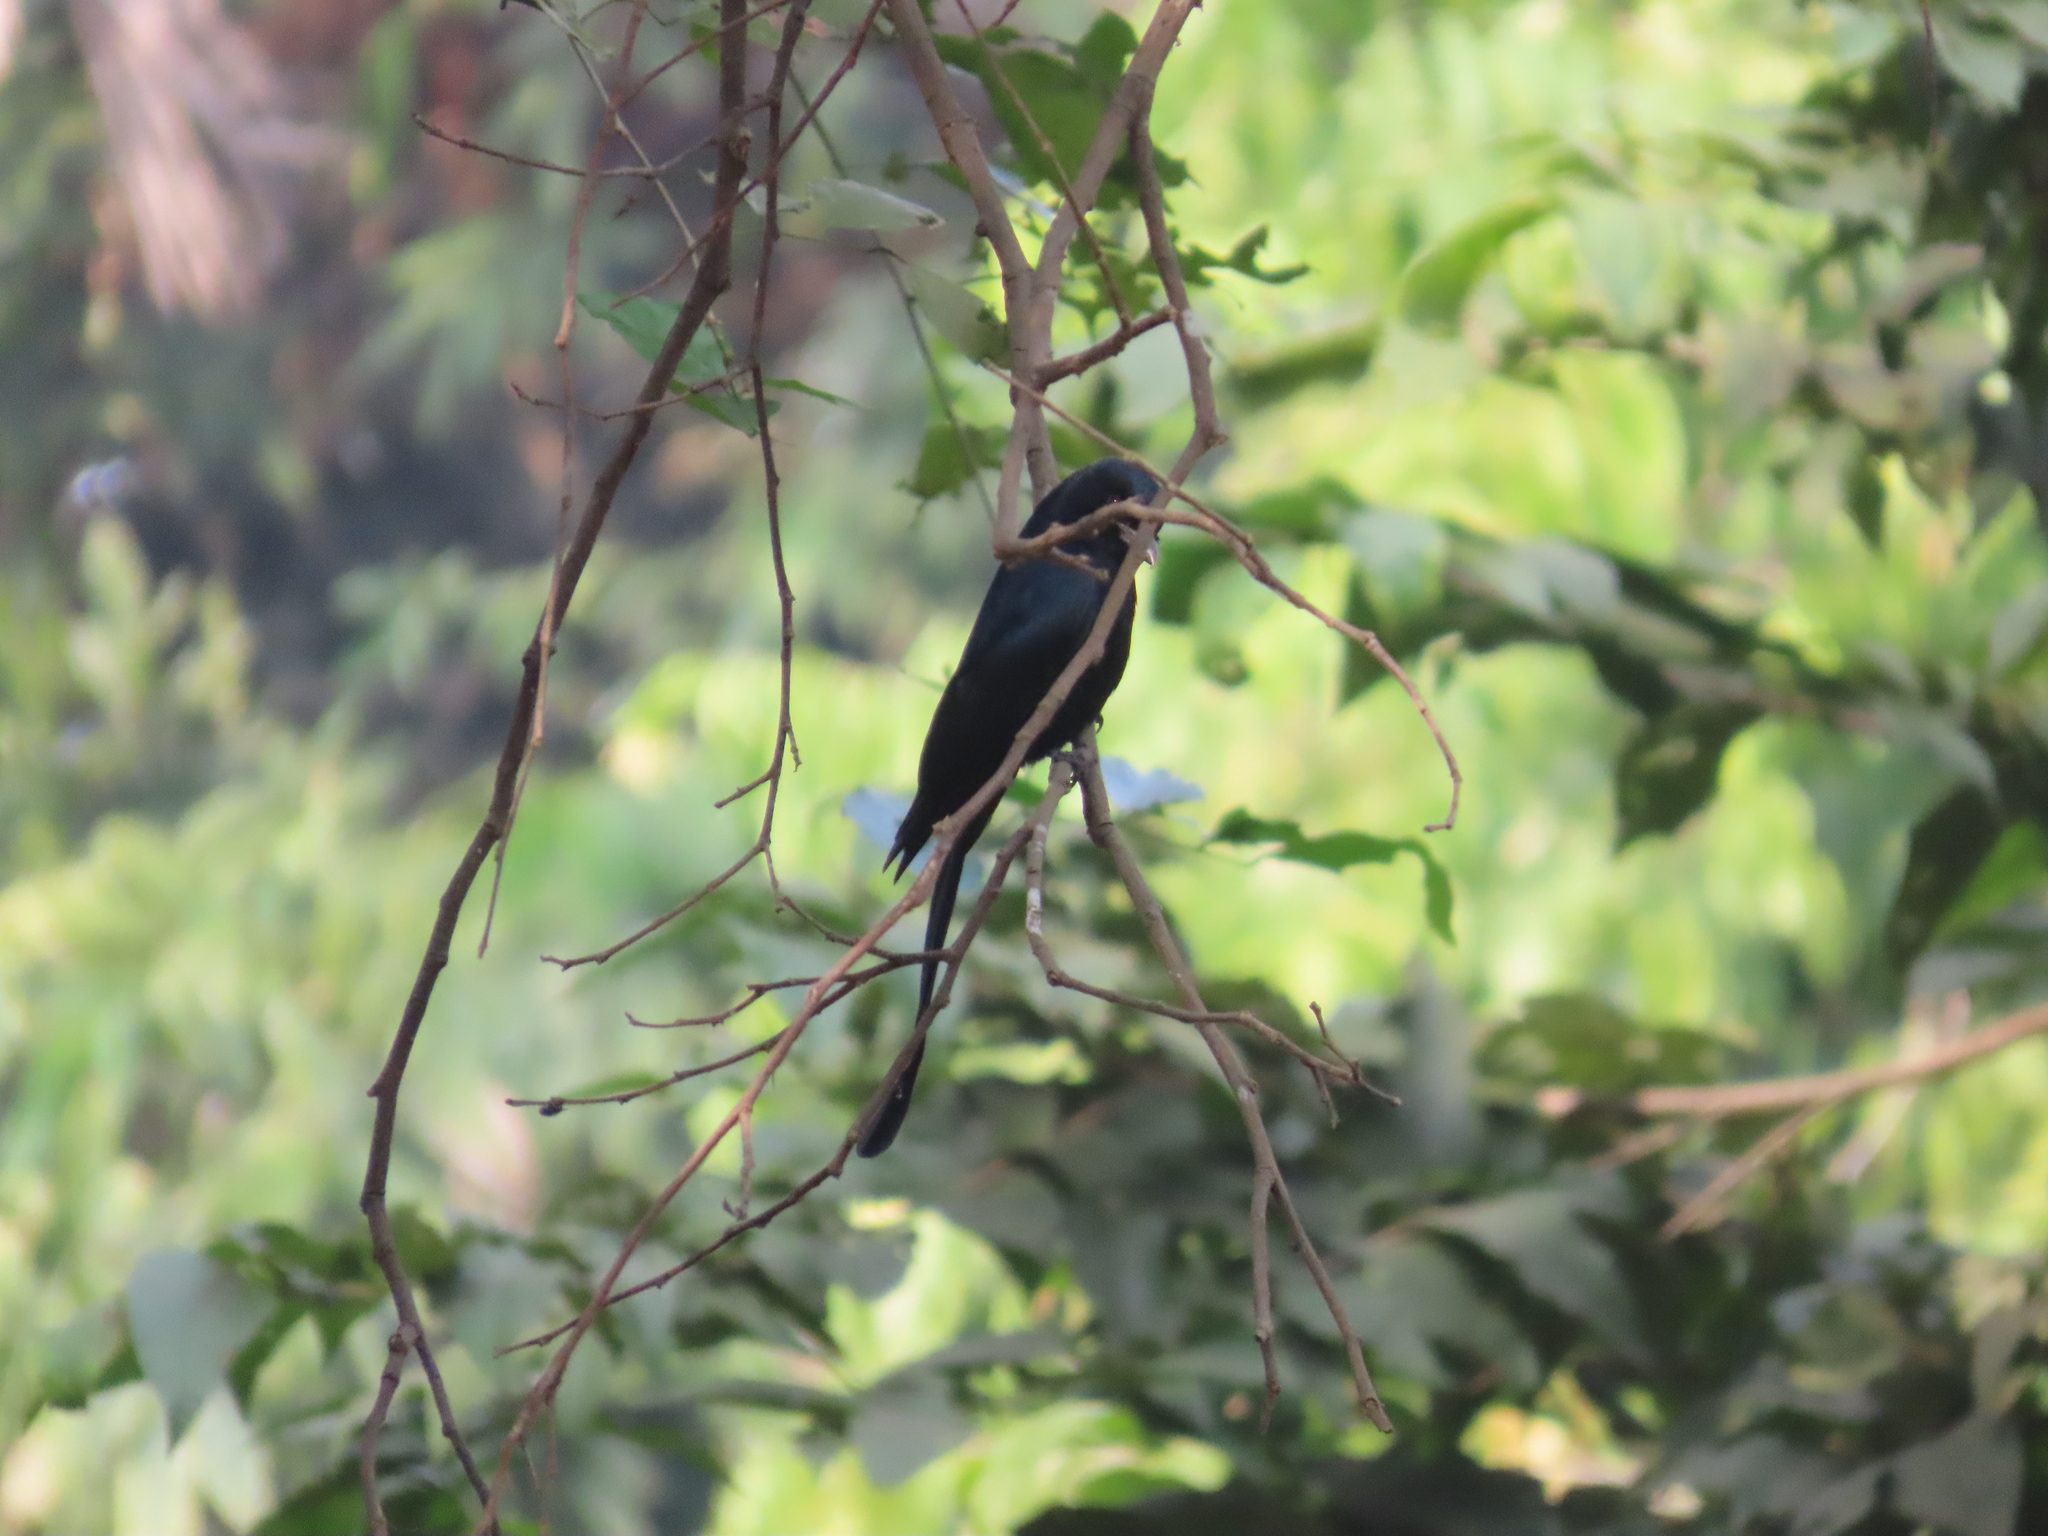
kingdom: Animalia
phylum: Chordata
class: Aves
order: Passeriformes
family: Dicruridae
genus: Dicrurus
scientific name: Dicrurus macrocercus
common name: Black drongo
